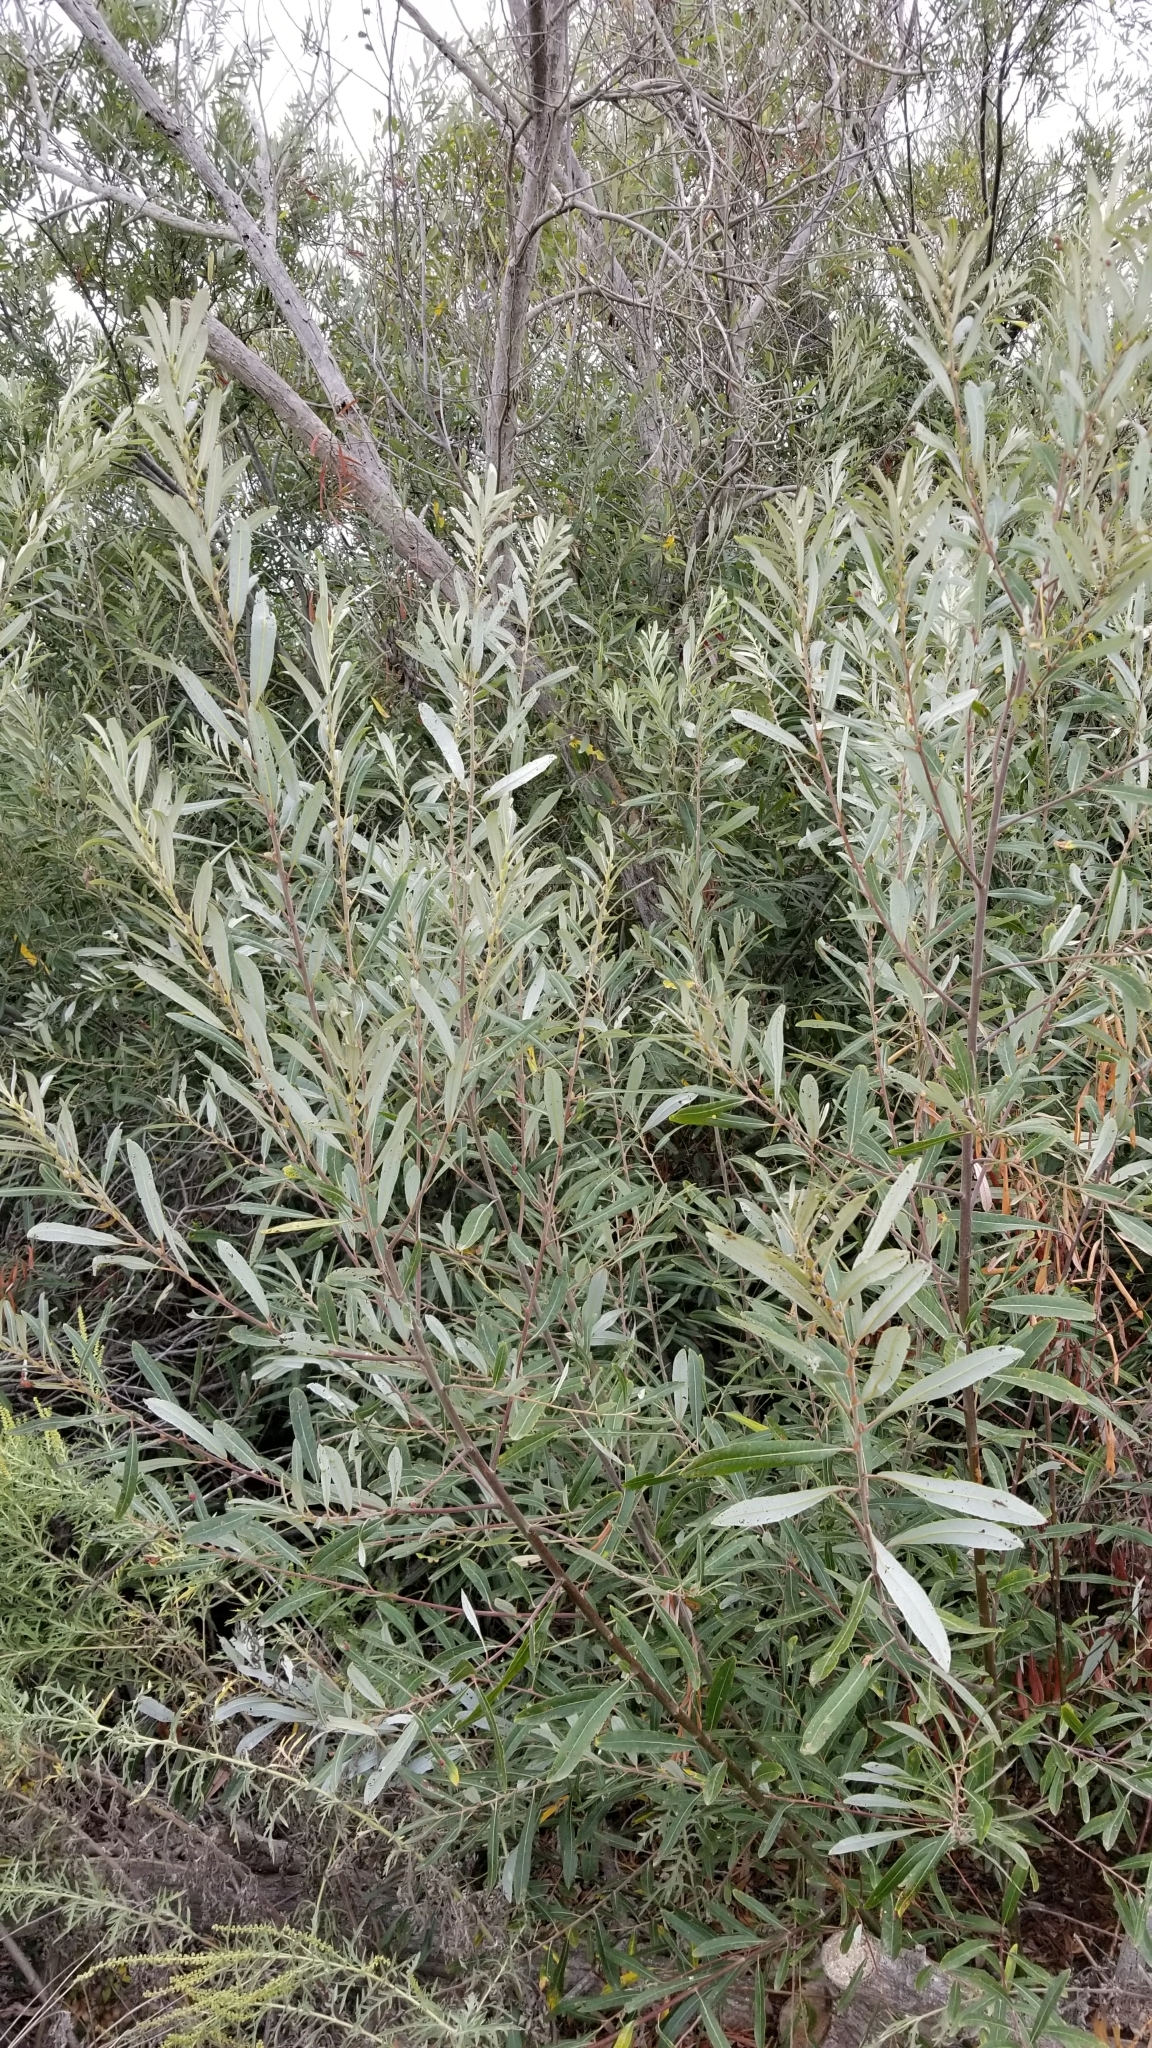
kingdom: Plantae
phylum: Tracheophyta
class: Magnoliopsida
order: Malpighiales
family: Salicaceae
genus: Salix
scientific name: Salix lasiolepis
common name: Arroyo willow
